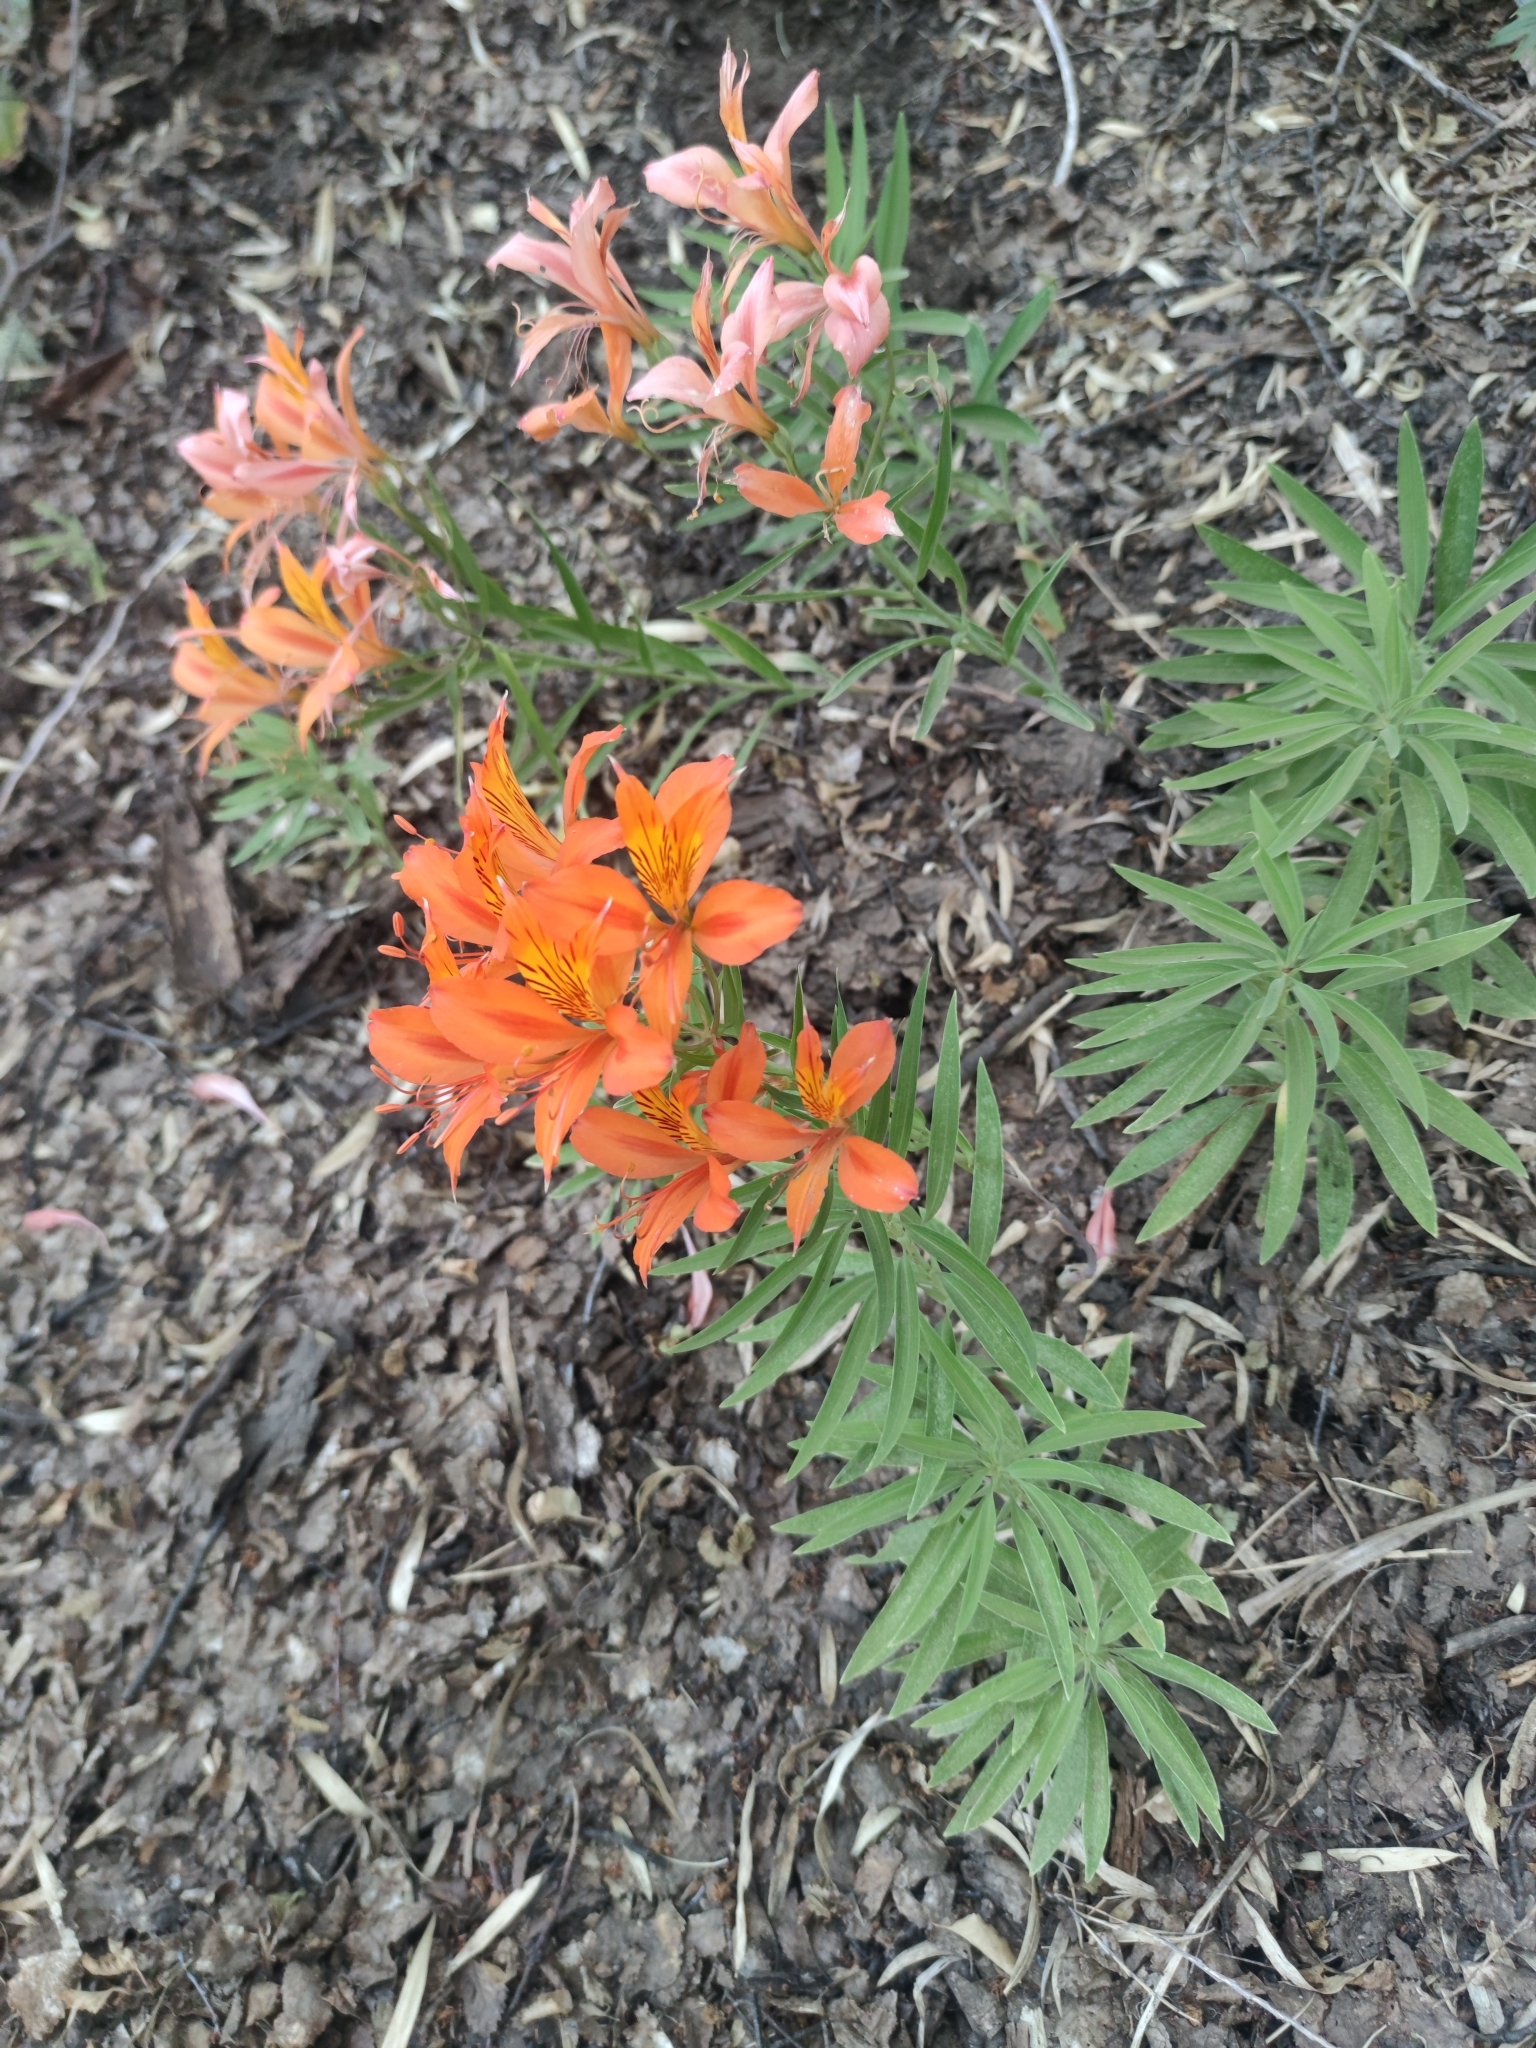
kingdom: Plantae
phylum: Tracheophyta
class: Liliopsida
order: Liliales
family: Alstroemeriaceae
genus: Alstroemeria
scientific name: Alstroemeria aurea
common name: Peruvian lily
